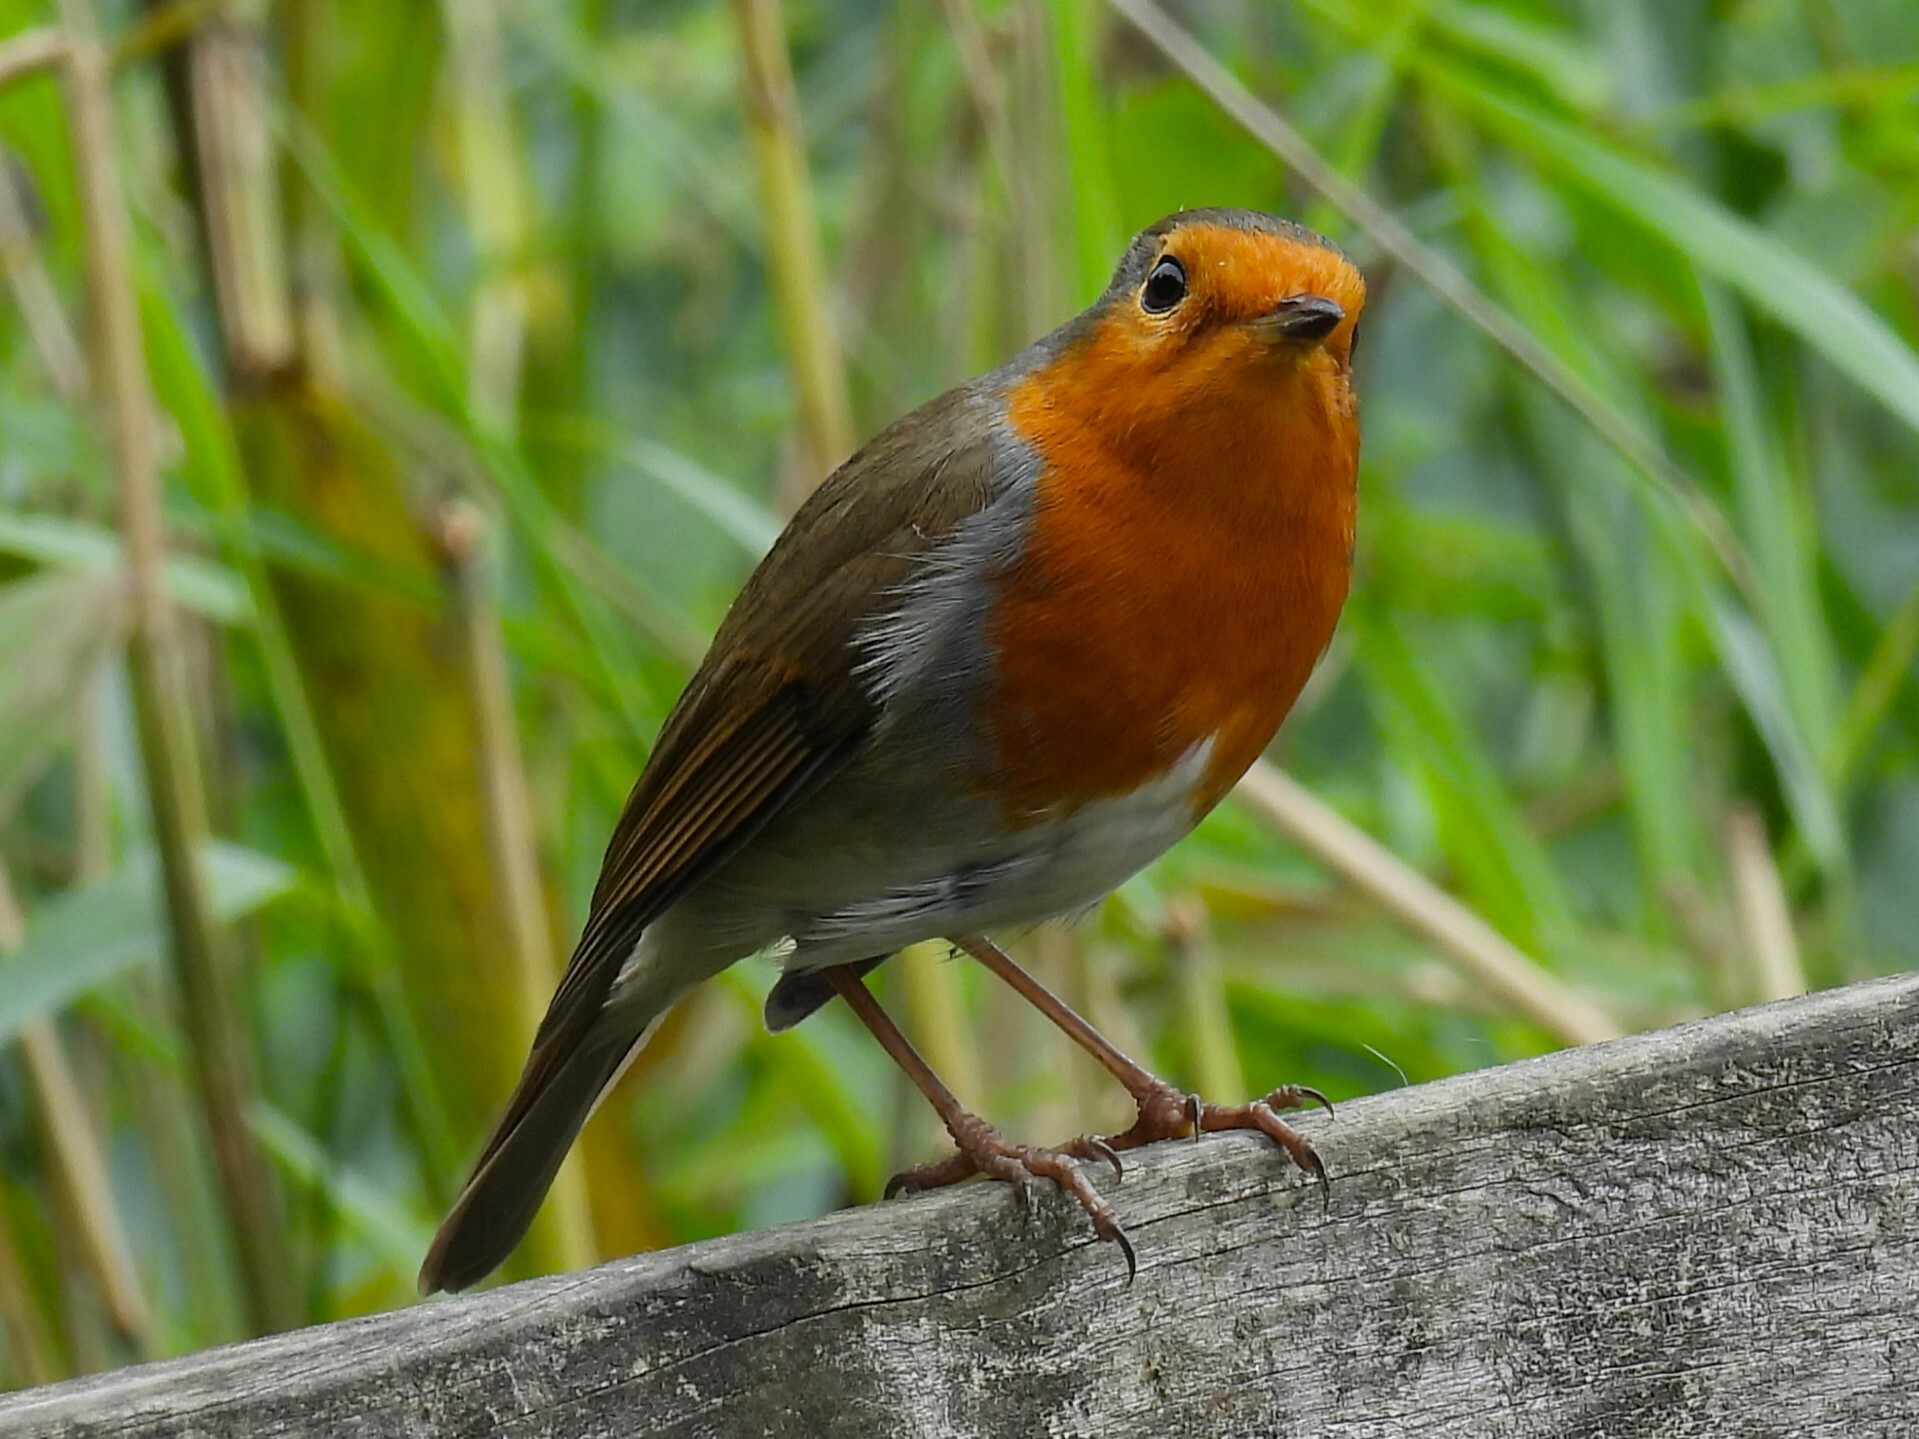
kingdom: Animalia
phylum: Chordata
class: Aves
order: Passeriformes
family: Muscicapidae
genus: Erithacus
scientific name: Erithacus rubecula
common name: European robin
